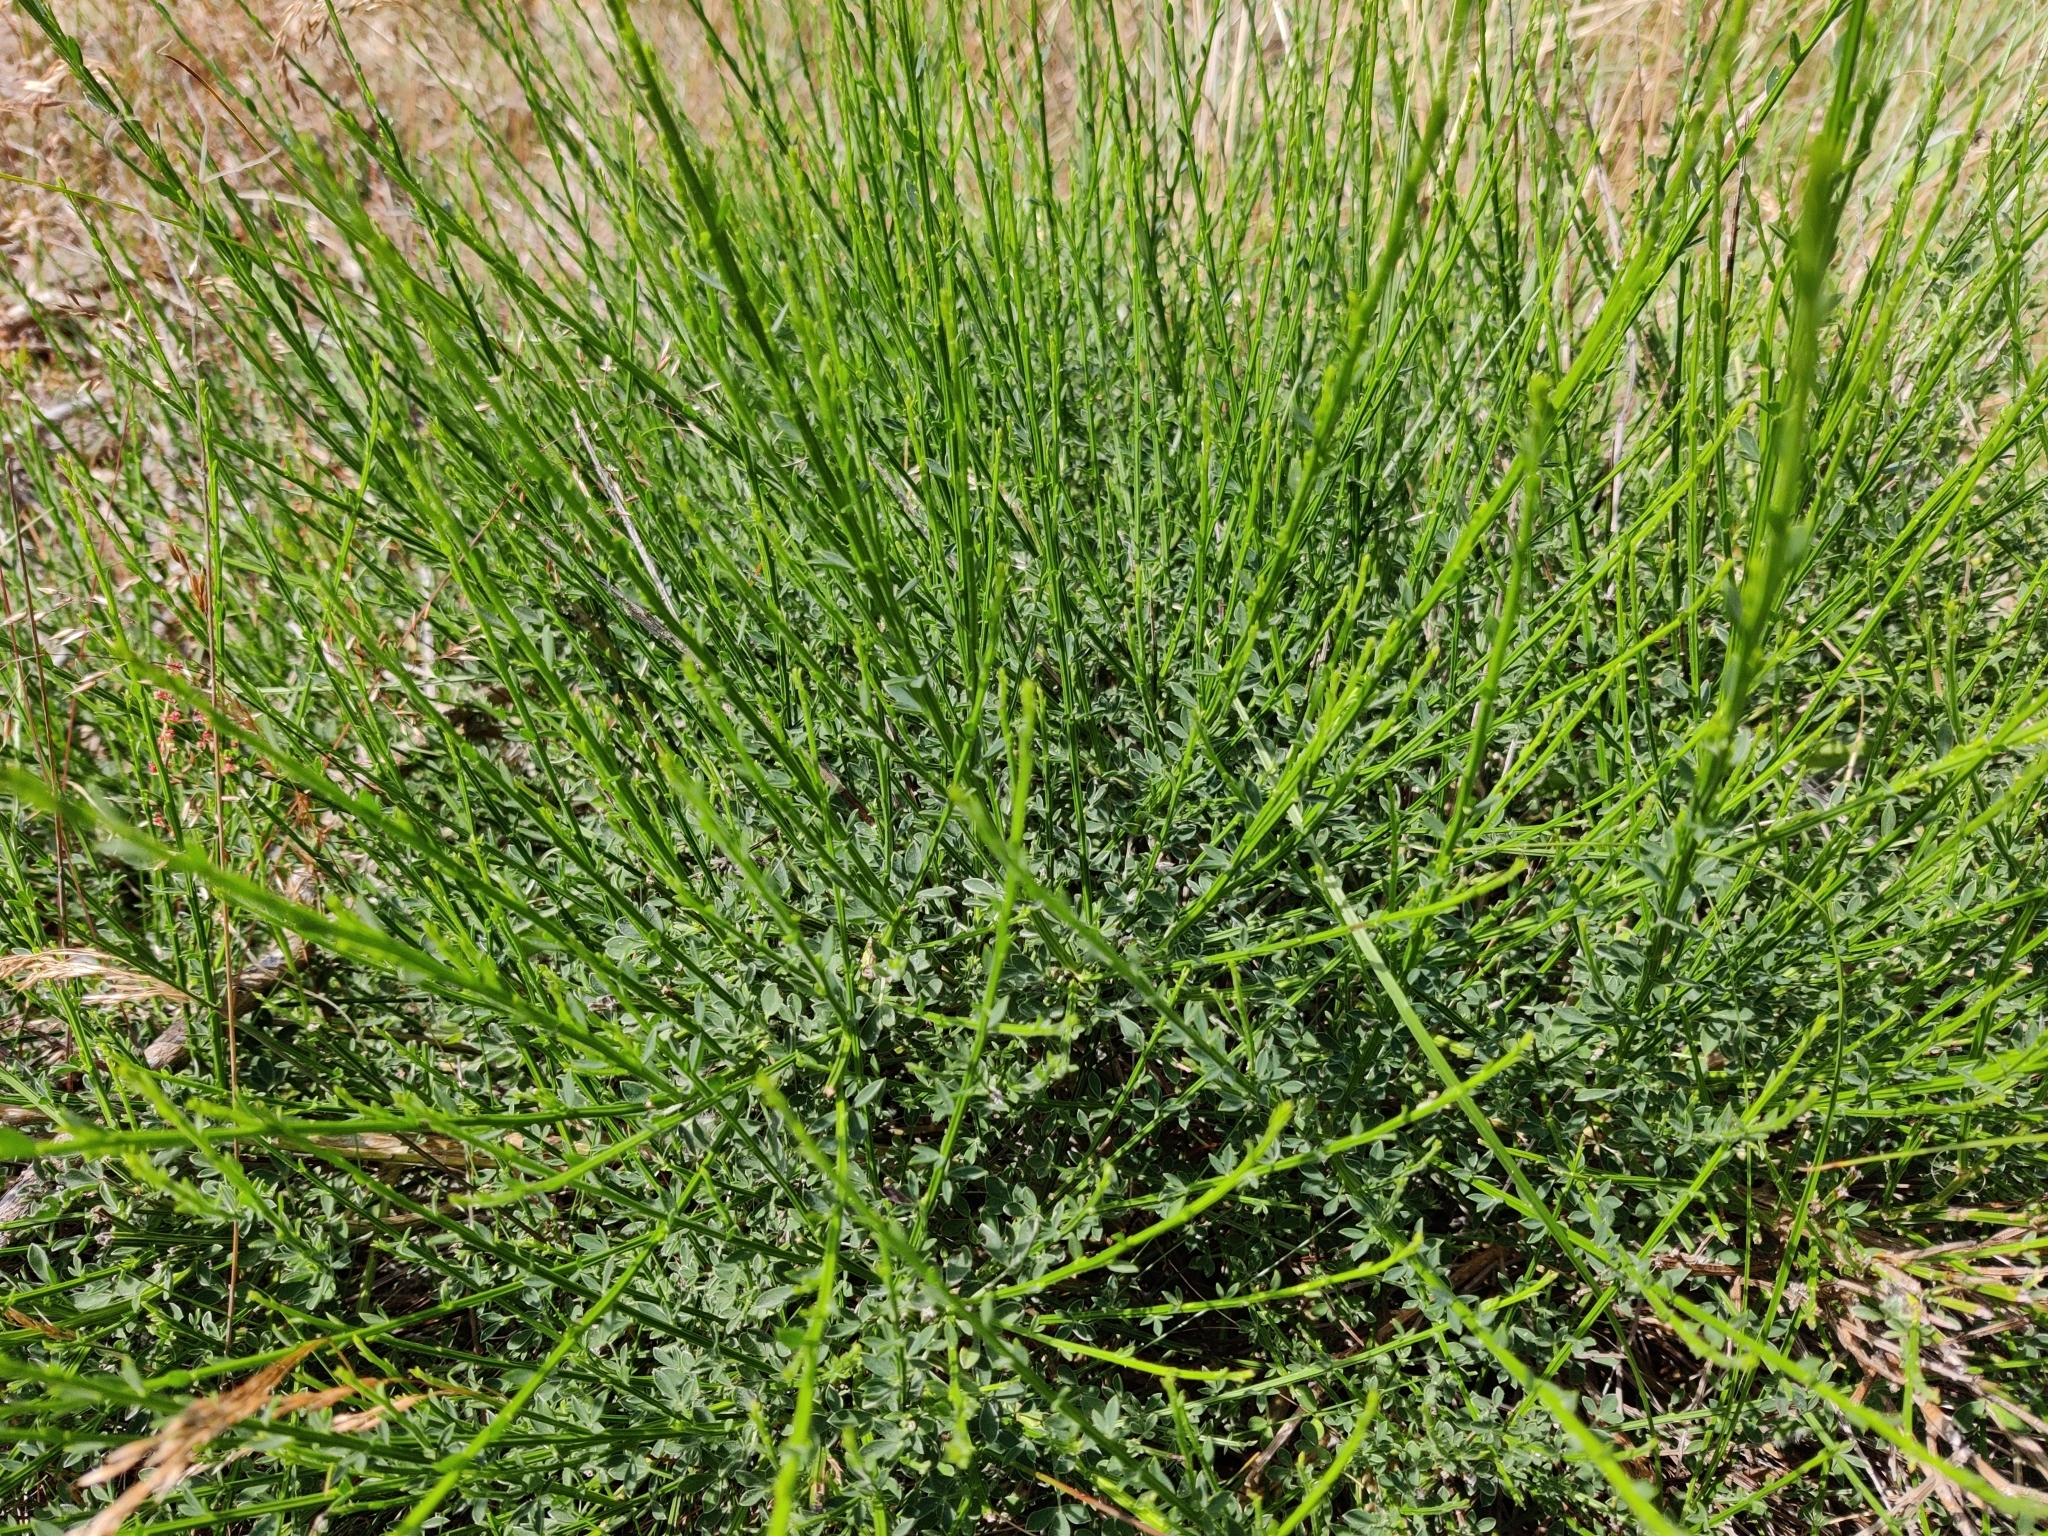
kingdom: Plantae
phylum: Tracheophyta
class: Magnoliopsida
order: Fabales
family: Fabaceae
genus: Cytisus
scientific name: Cytisus scoparius
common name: Scotch broom
